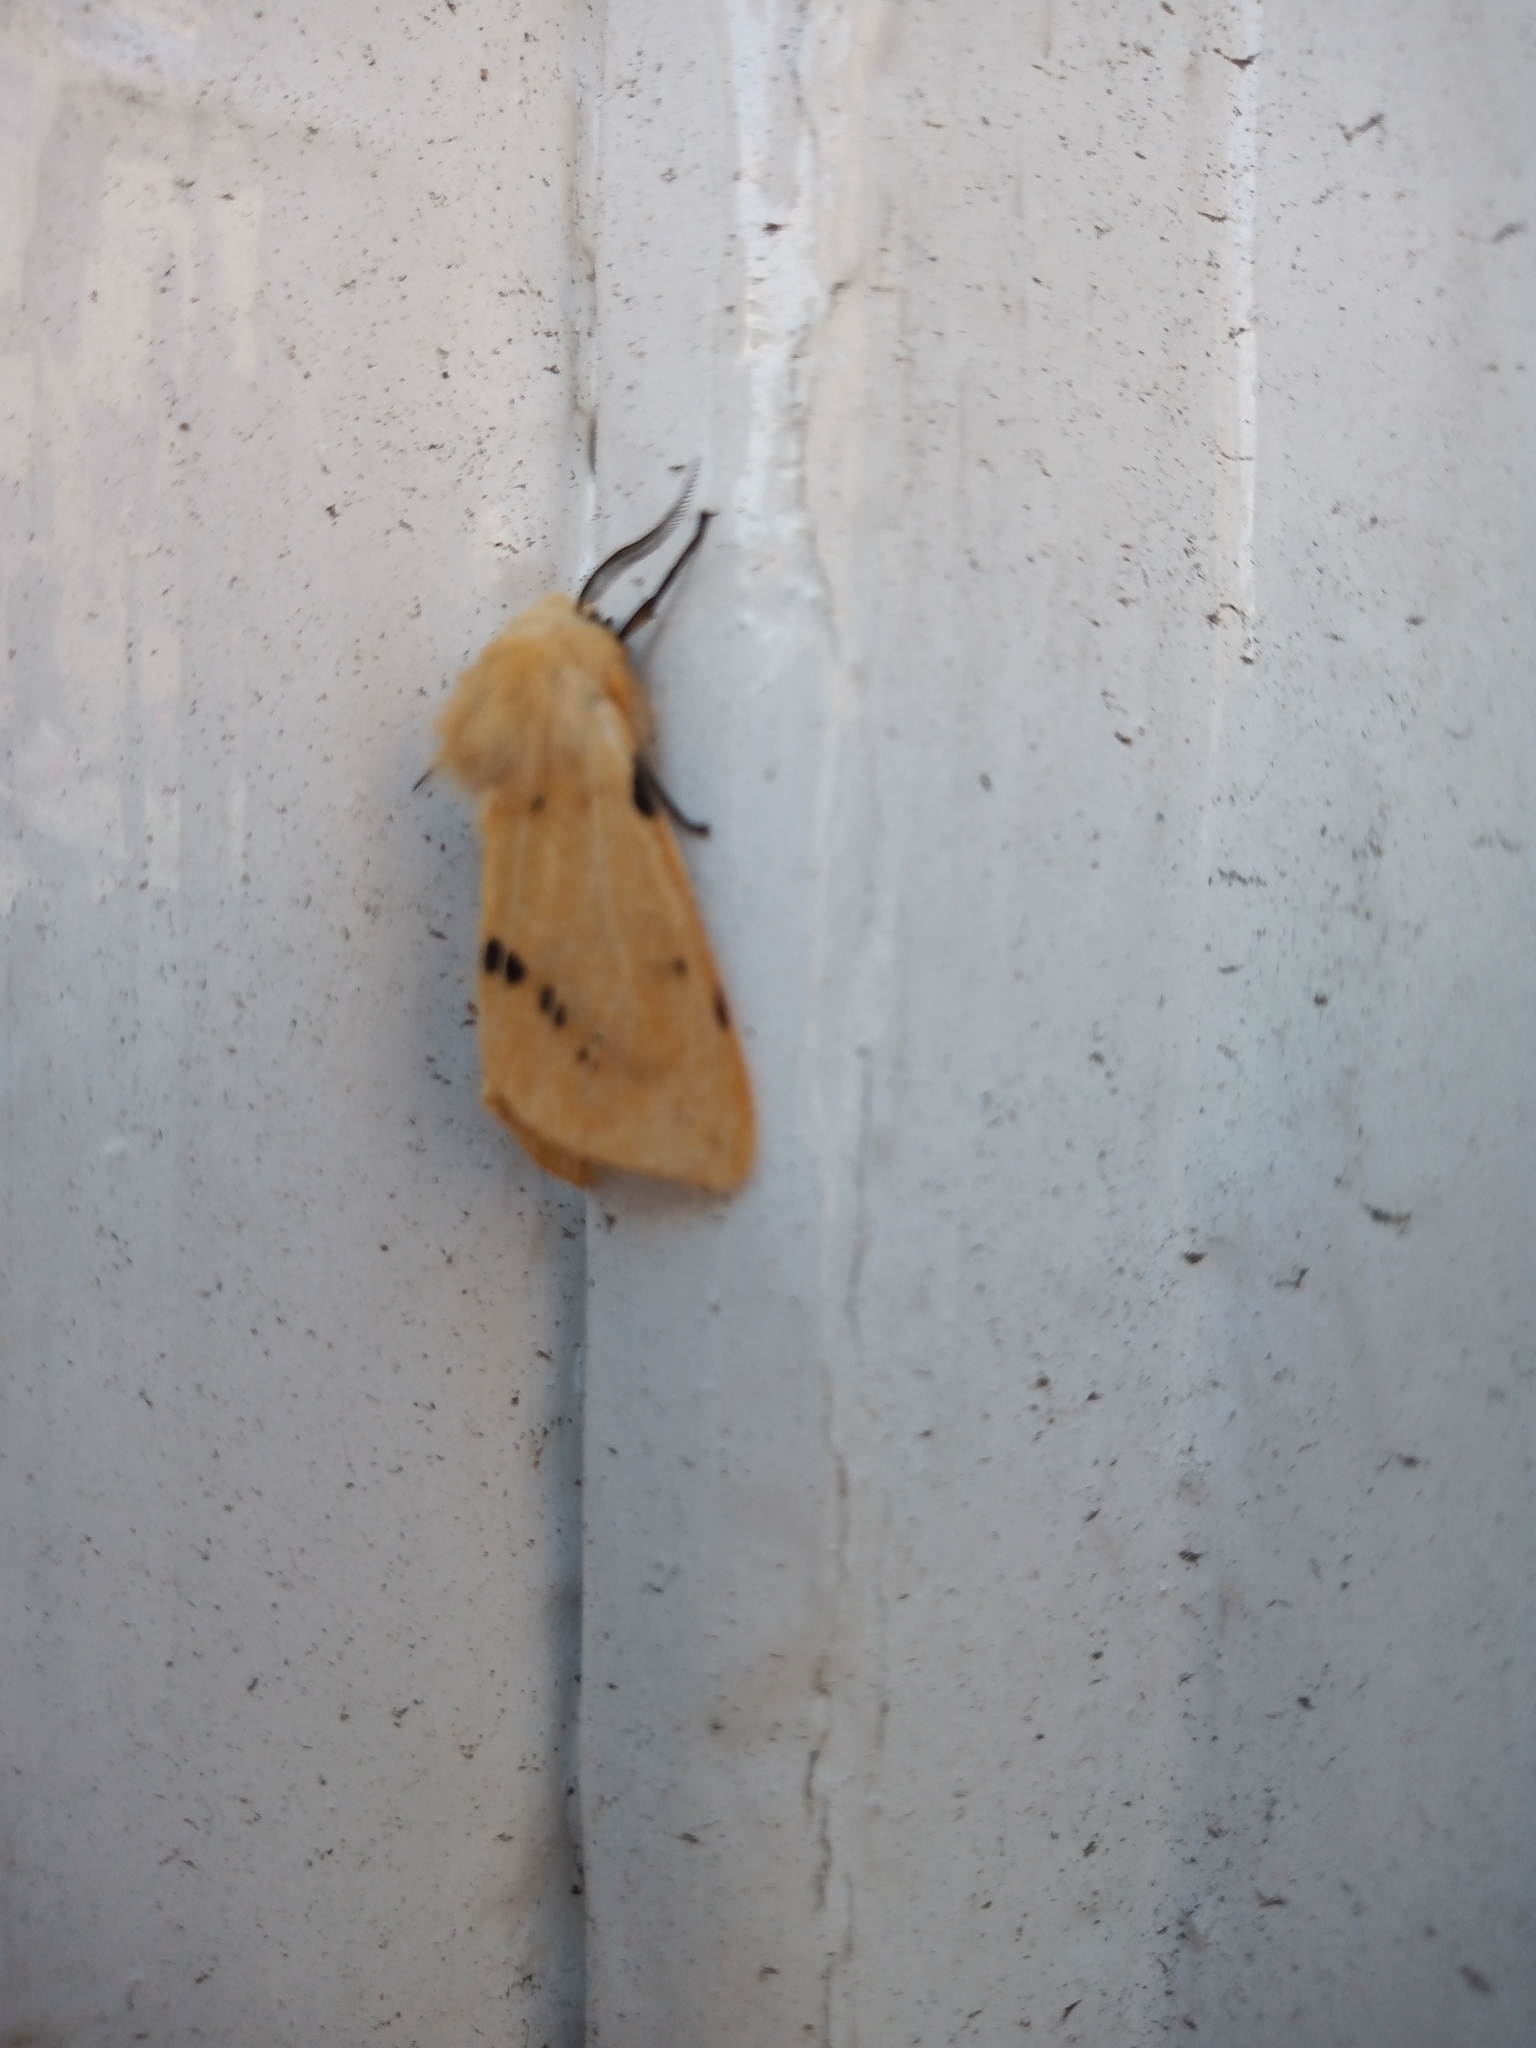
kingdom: Animalia
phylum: Arthropoda
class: Insecta
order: Lepidoptera
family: Erebidae
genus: Spilarctia
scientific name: Spilarctia lutea
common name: Buff ermine
